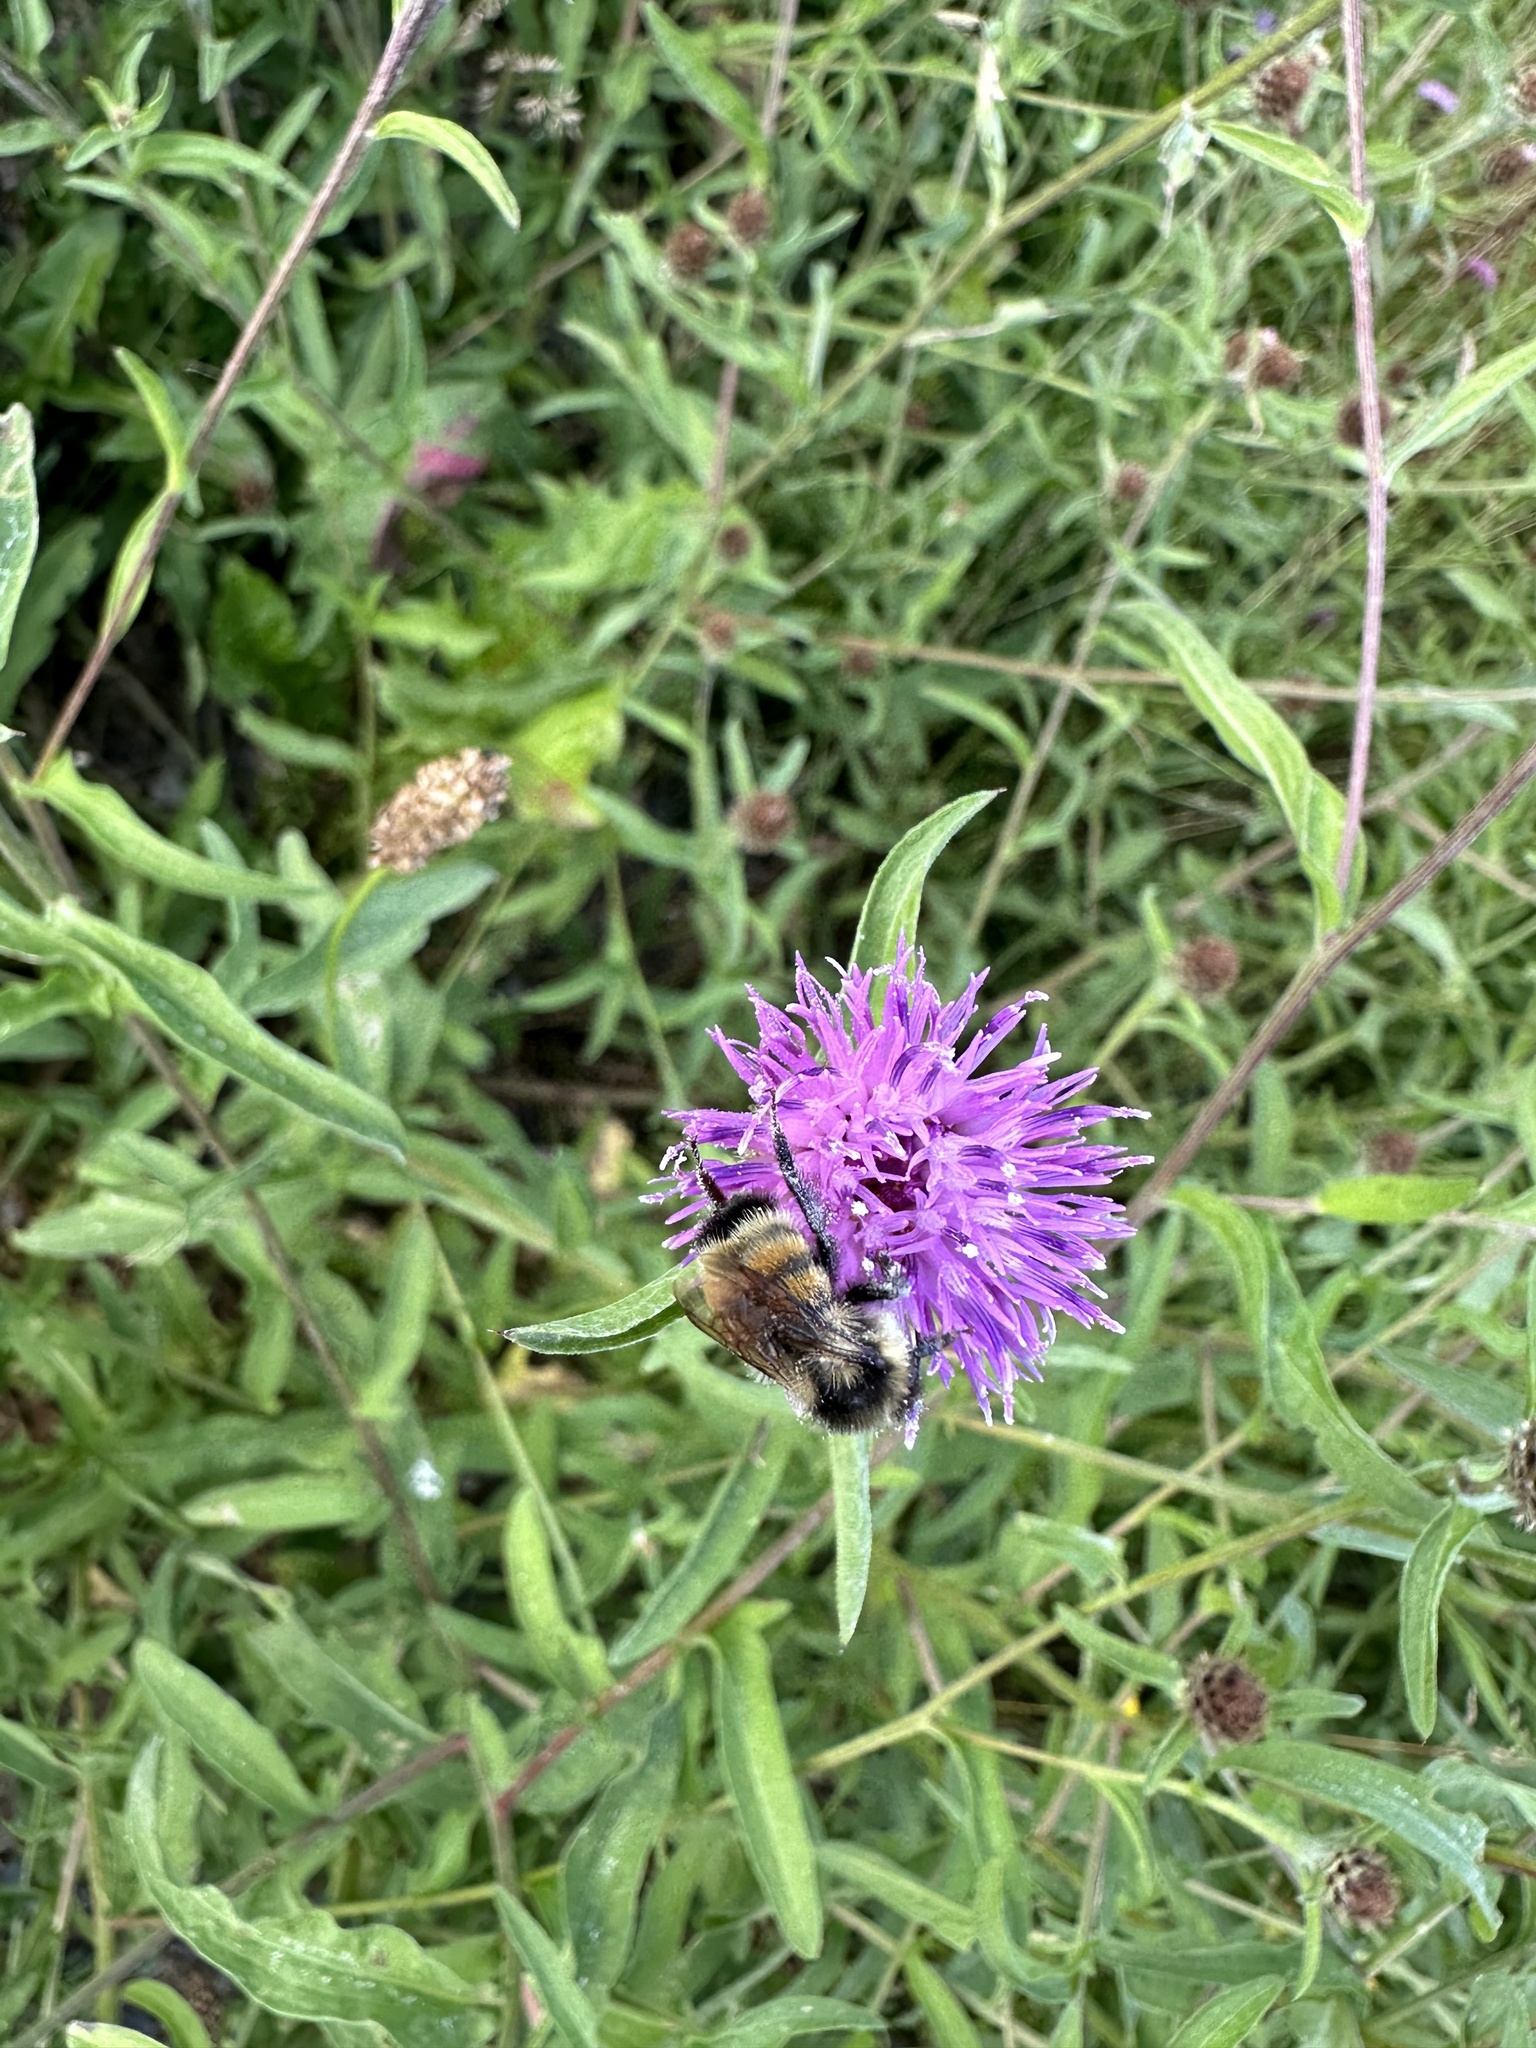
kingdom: Animalia
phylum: Arthropoda
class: Insecta
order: Hymenoptera
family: Apidae
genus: Bombus
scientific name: Bombus ternarius
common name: Tri-colored bumble bee
